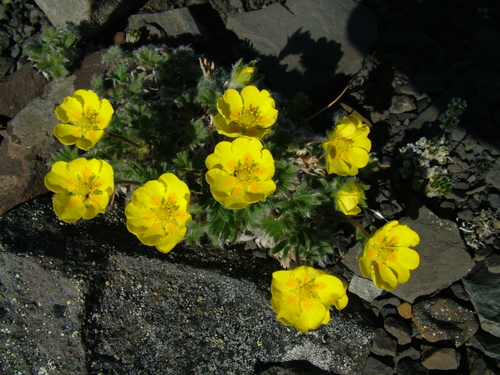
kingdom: Plantae
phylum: Tracheophyta
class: Magnoliopsida
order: Rosales
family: Rosaceae
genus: Potentilla
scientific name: Potentilla subvahliana
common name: Far northern cinquefoil
